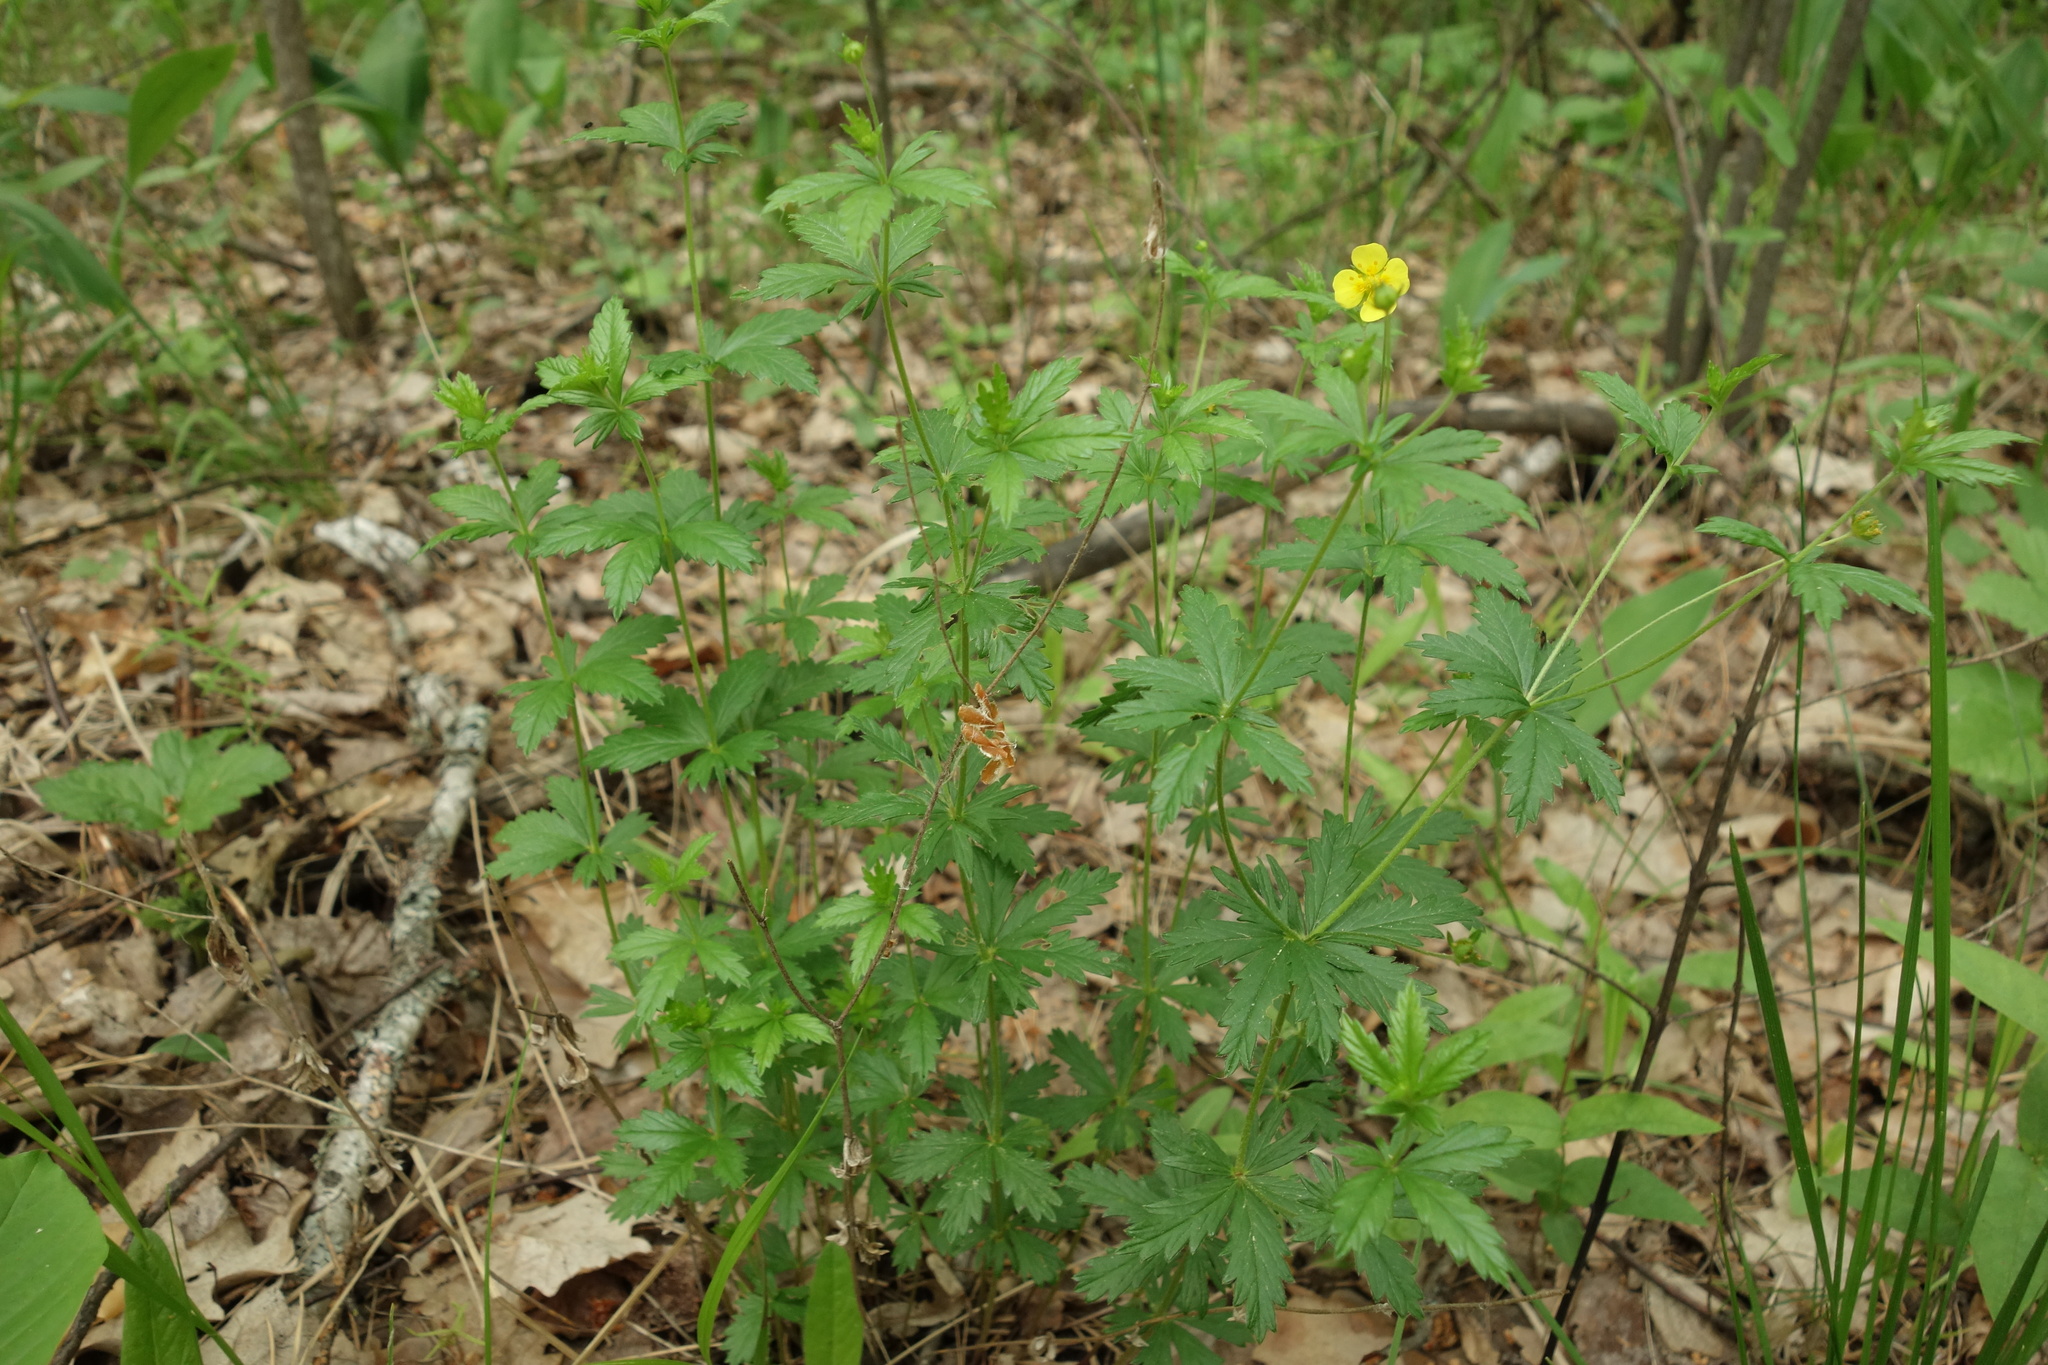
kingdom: Plantae
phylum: Tracheophyta
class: Magnoliopsida
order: Rosales
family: Rosaceae
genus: Potentilla
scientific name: Potentilla erecta
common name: Tormentil
